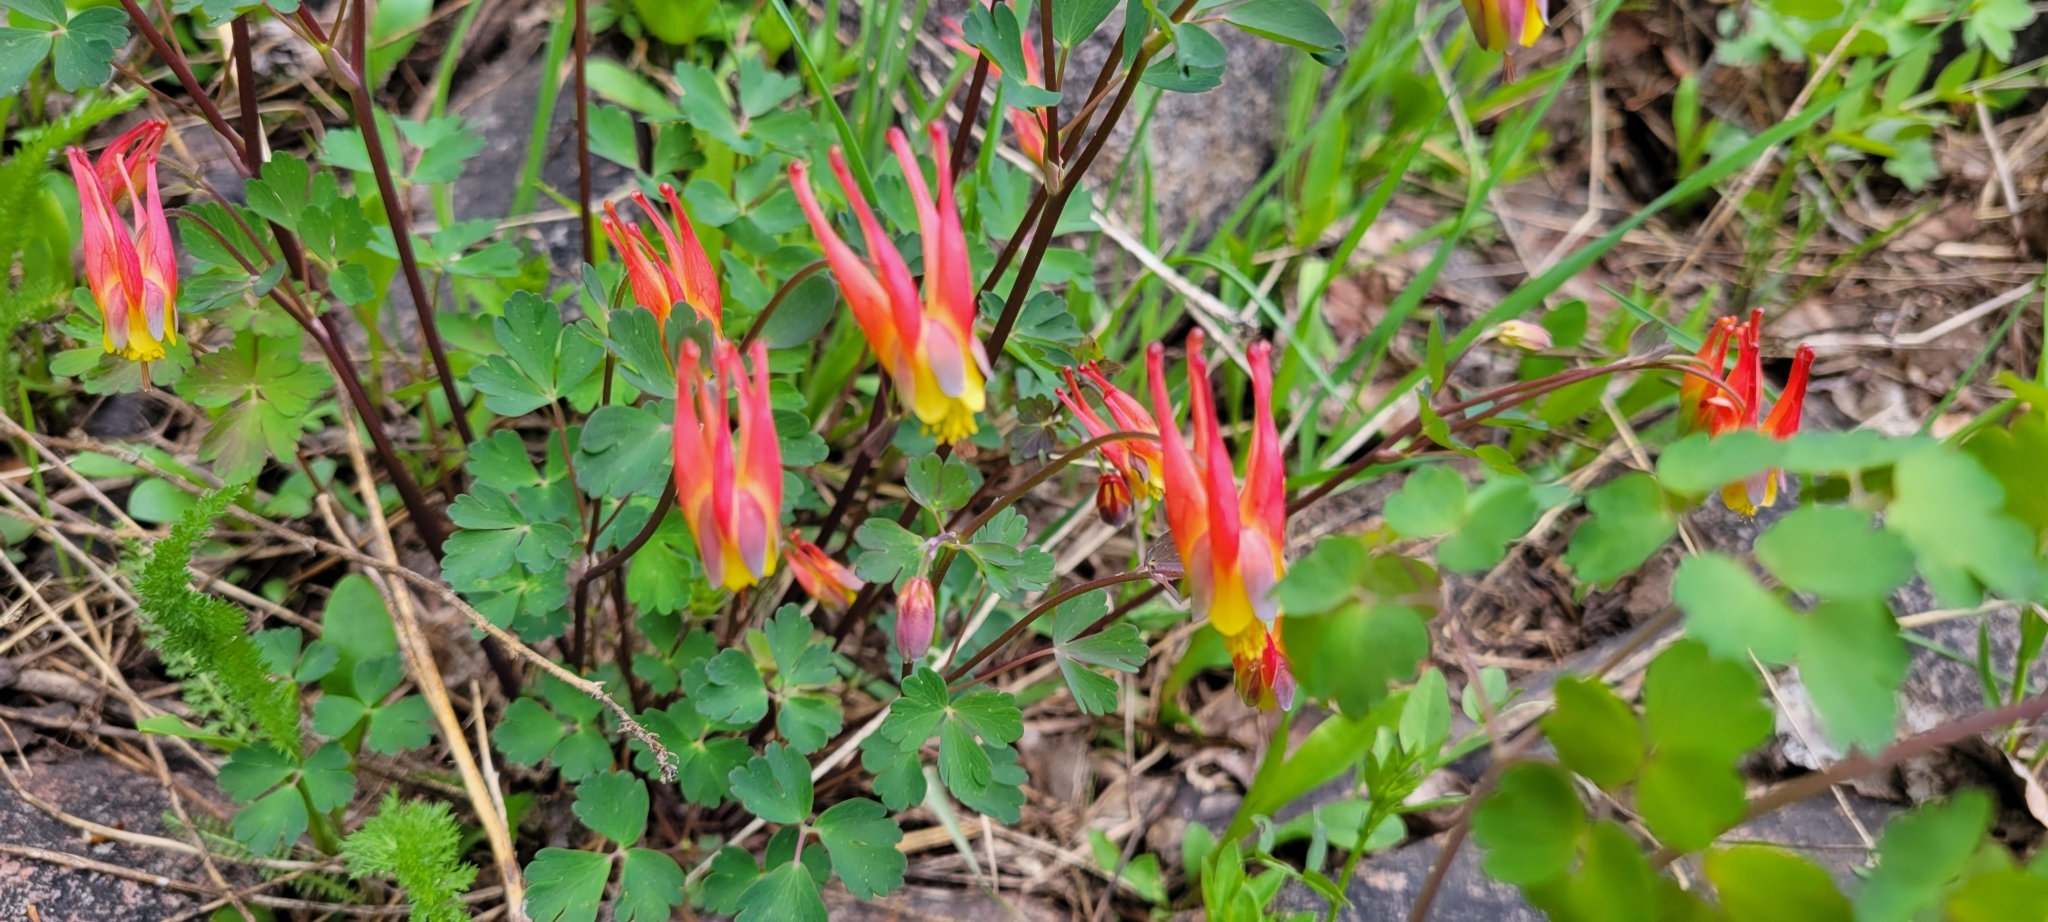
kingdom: Plantae
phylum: Tracheophyta
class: Magnoliopsida
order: Ranunculales
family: Ranunculaceae
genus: Aquilegia
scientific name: Aquilegia elegantula
